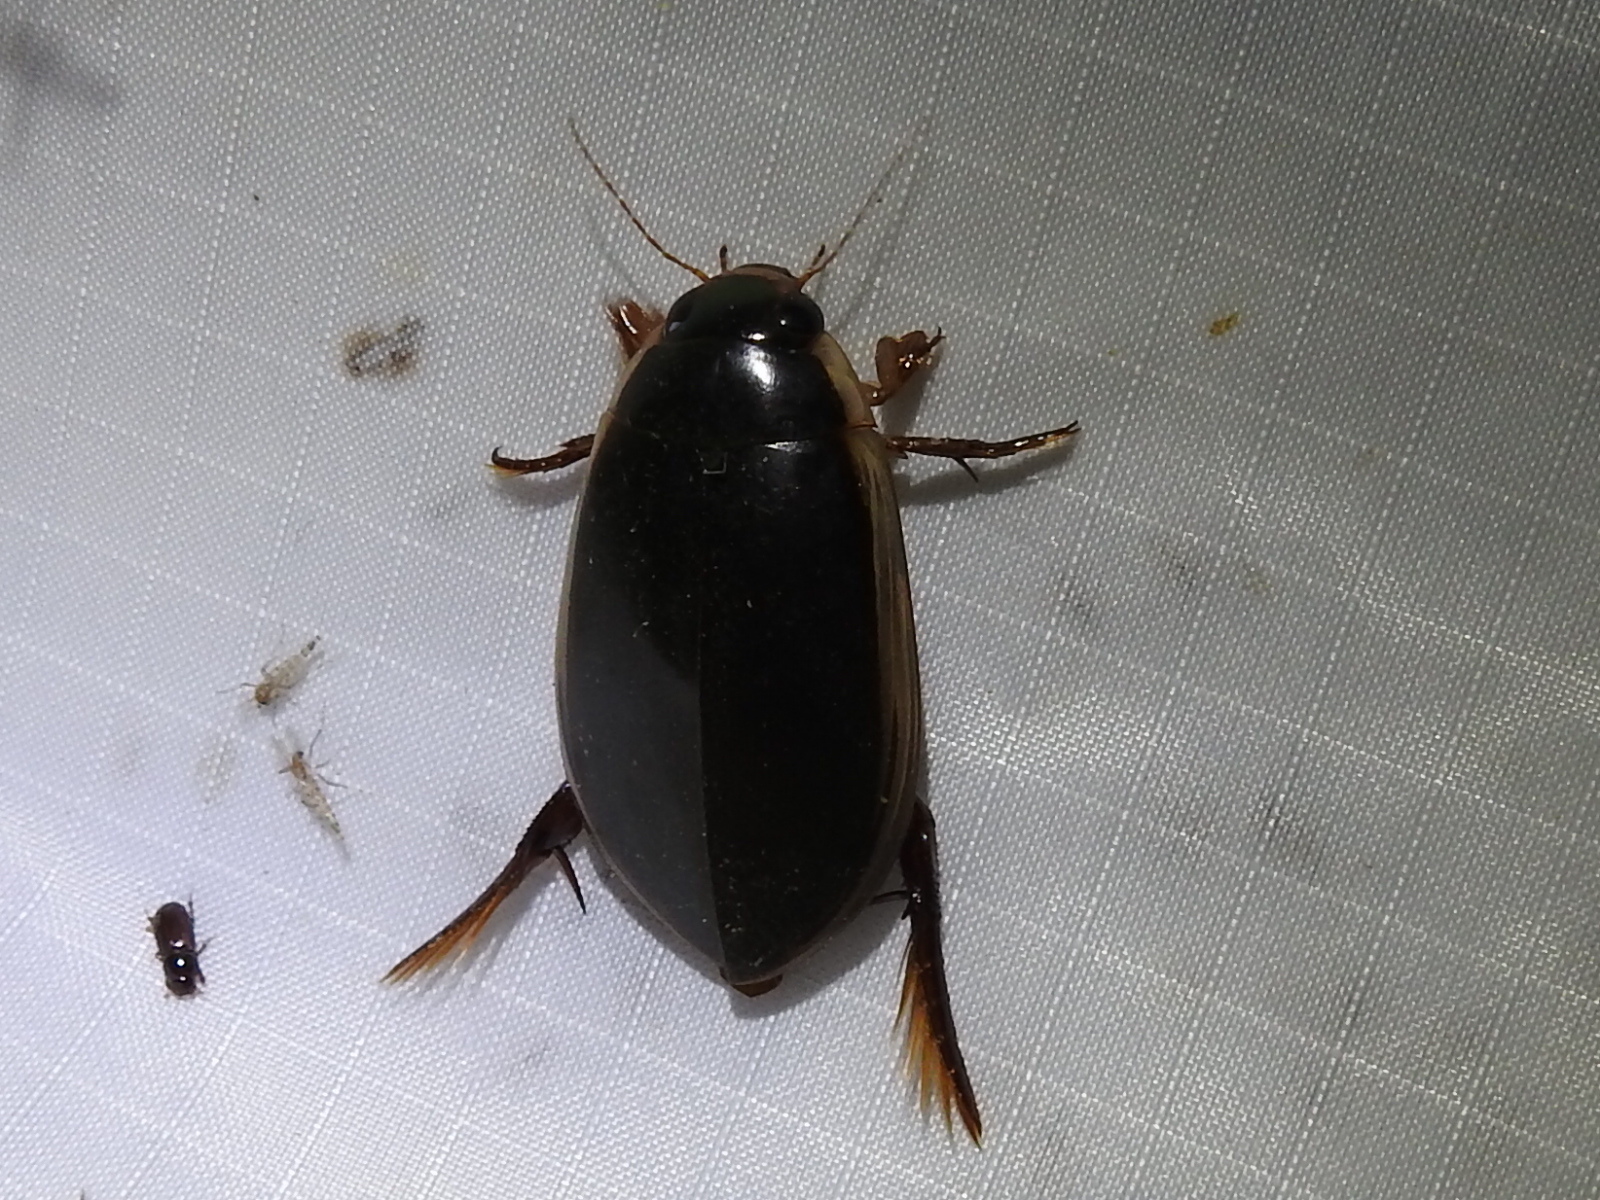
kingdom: Animalia
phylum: Arthropoda
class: Insecta
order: Coleoptera
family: Dytiscidae
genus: Cybister
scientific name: Cybister fimbriolatus
